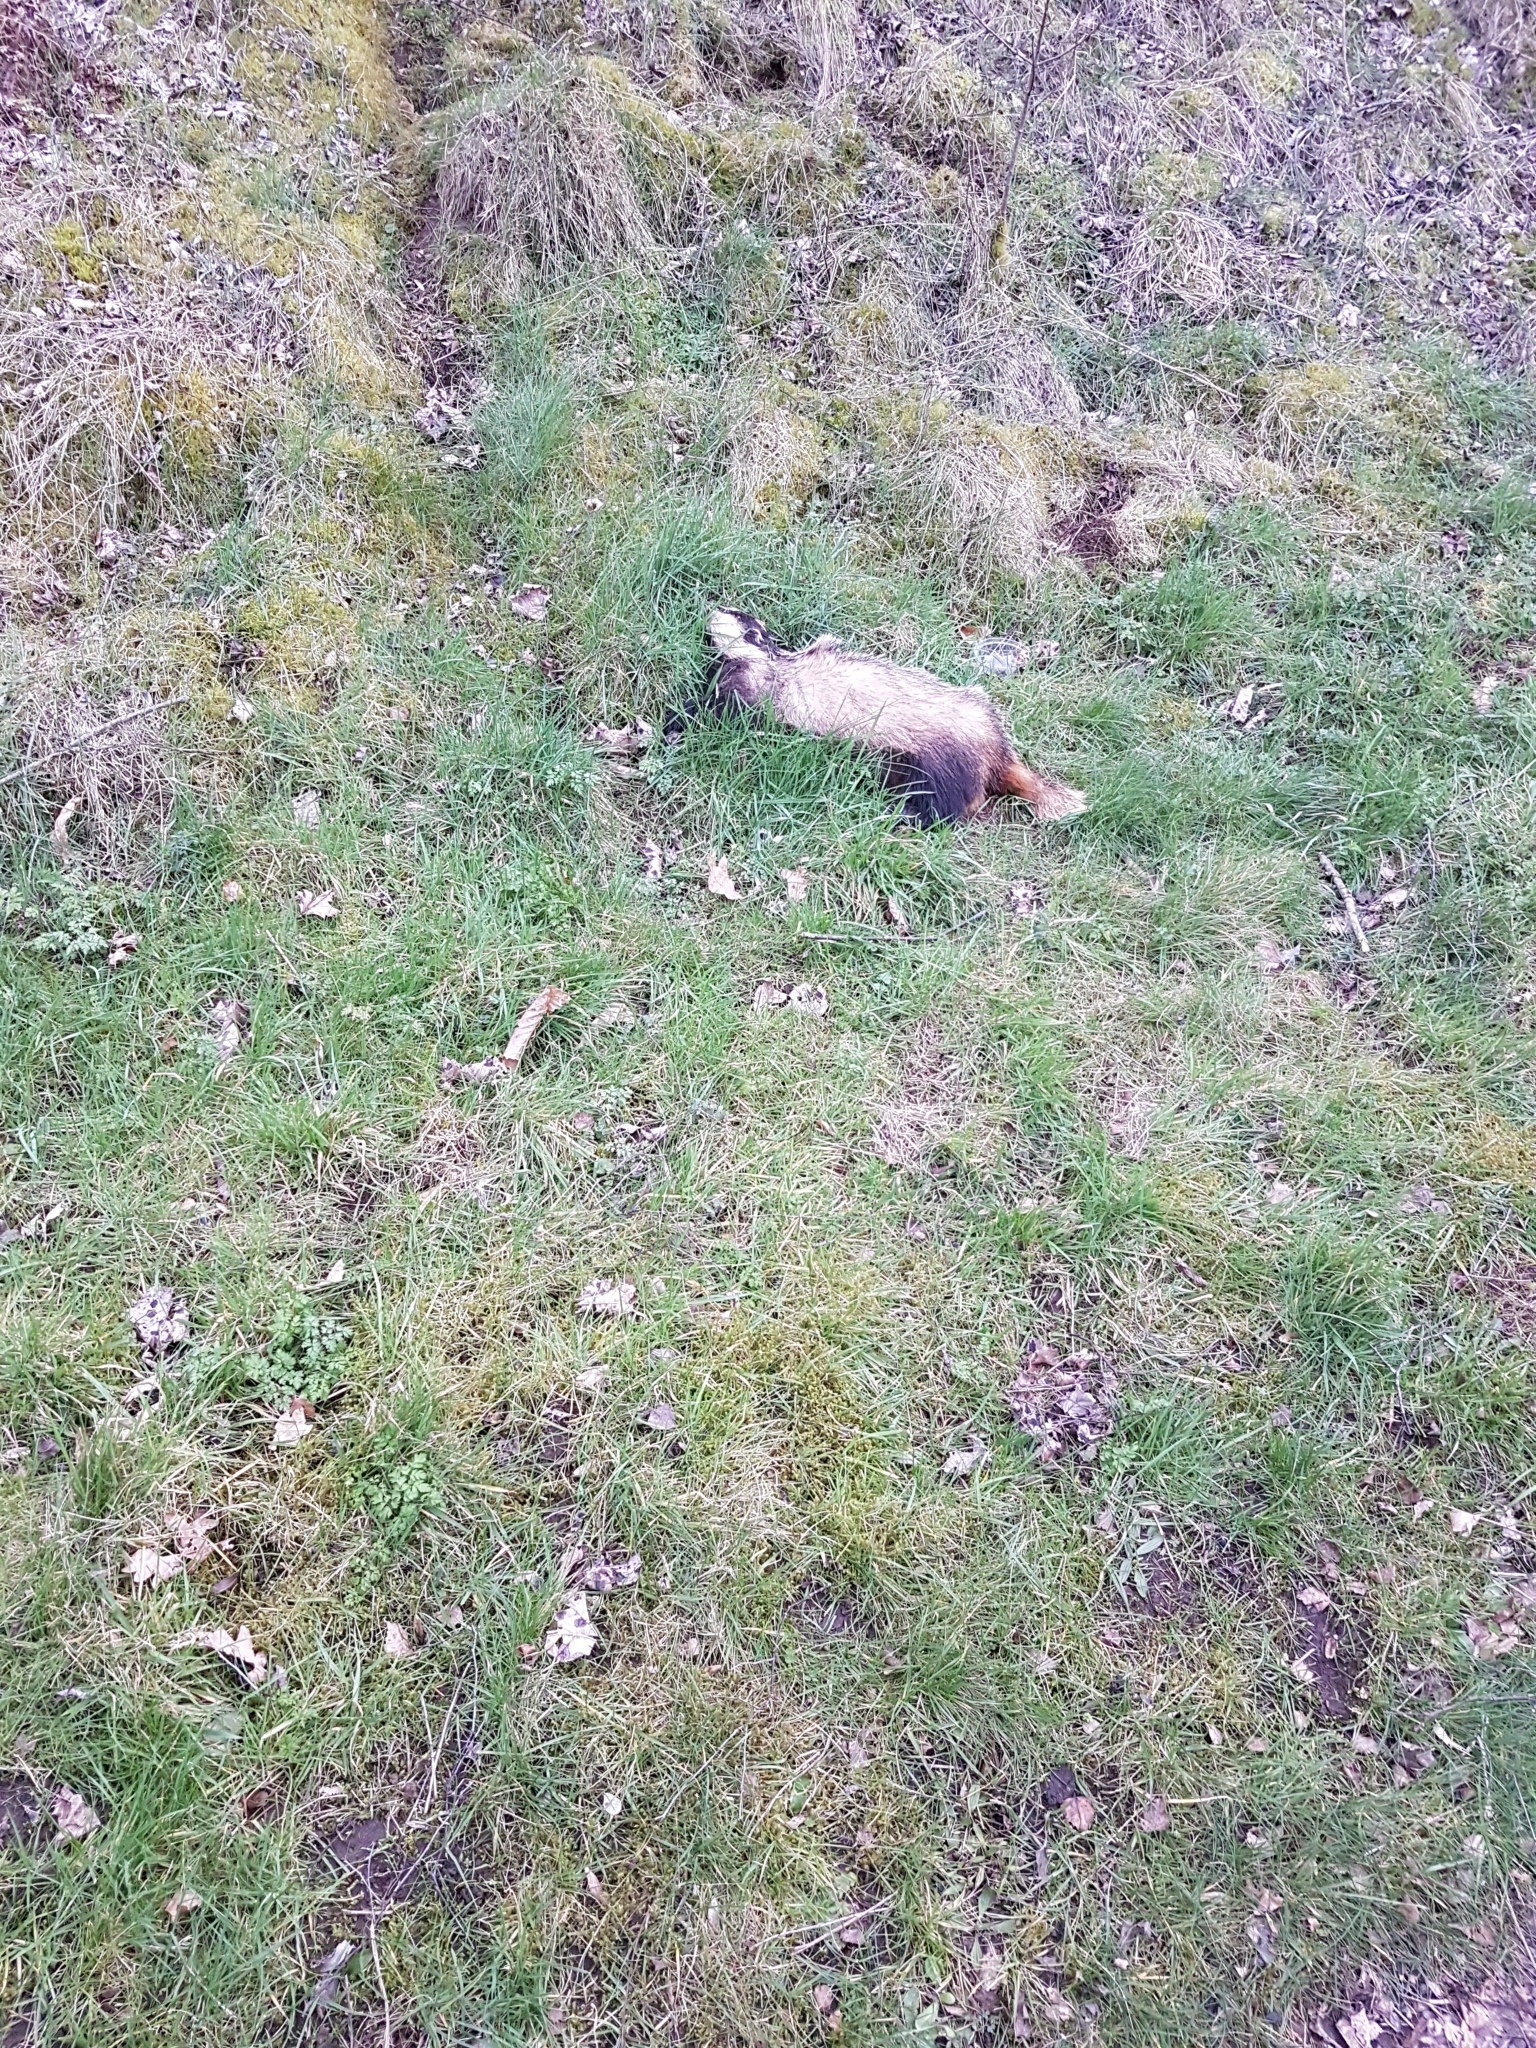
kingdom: Animalia
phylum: Chordata
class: Mammalia
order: Carnivora
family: Mustelidae
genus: Meles
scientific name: Meles meles
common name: Eurasian badger
